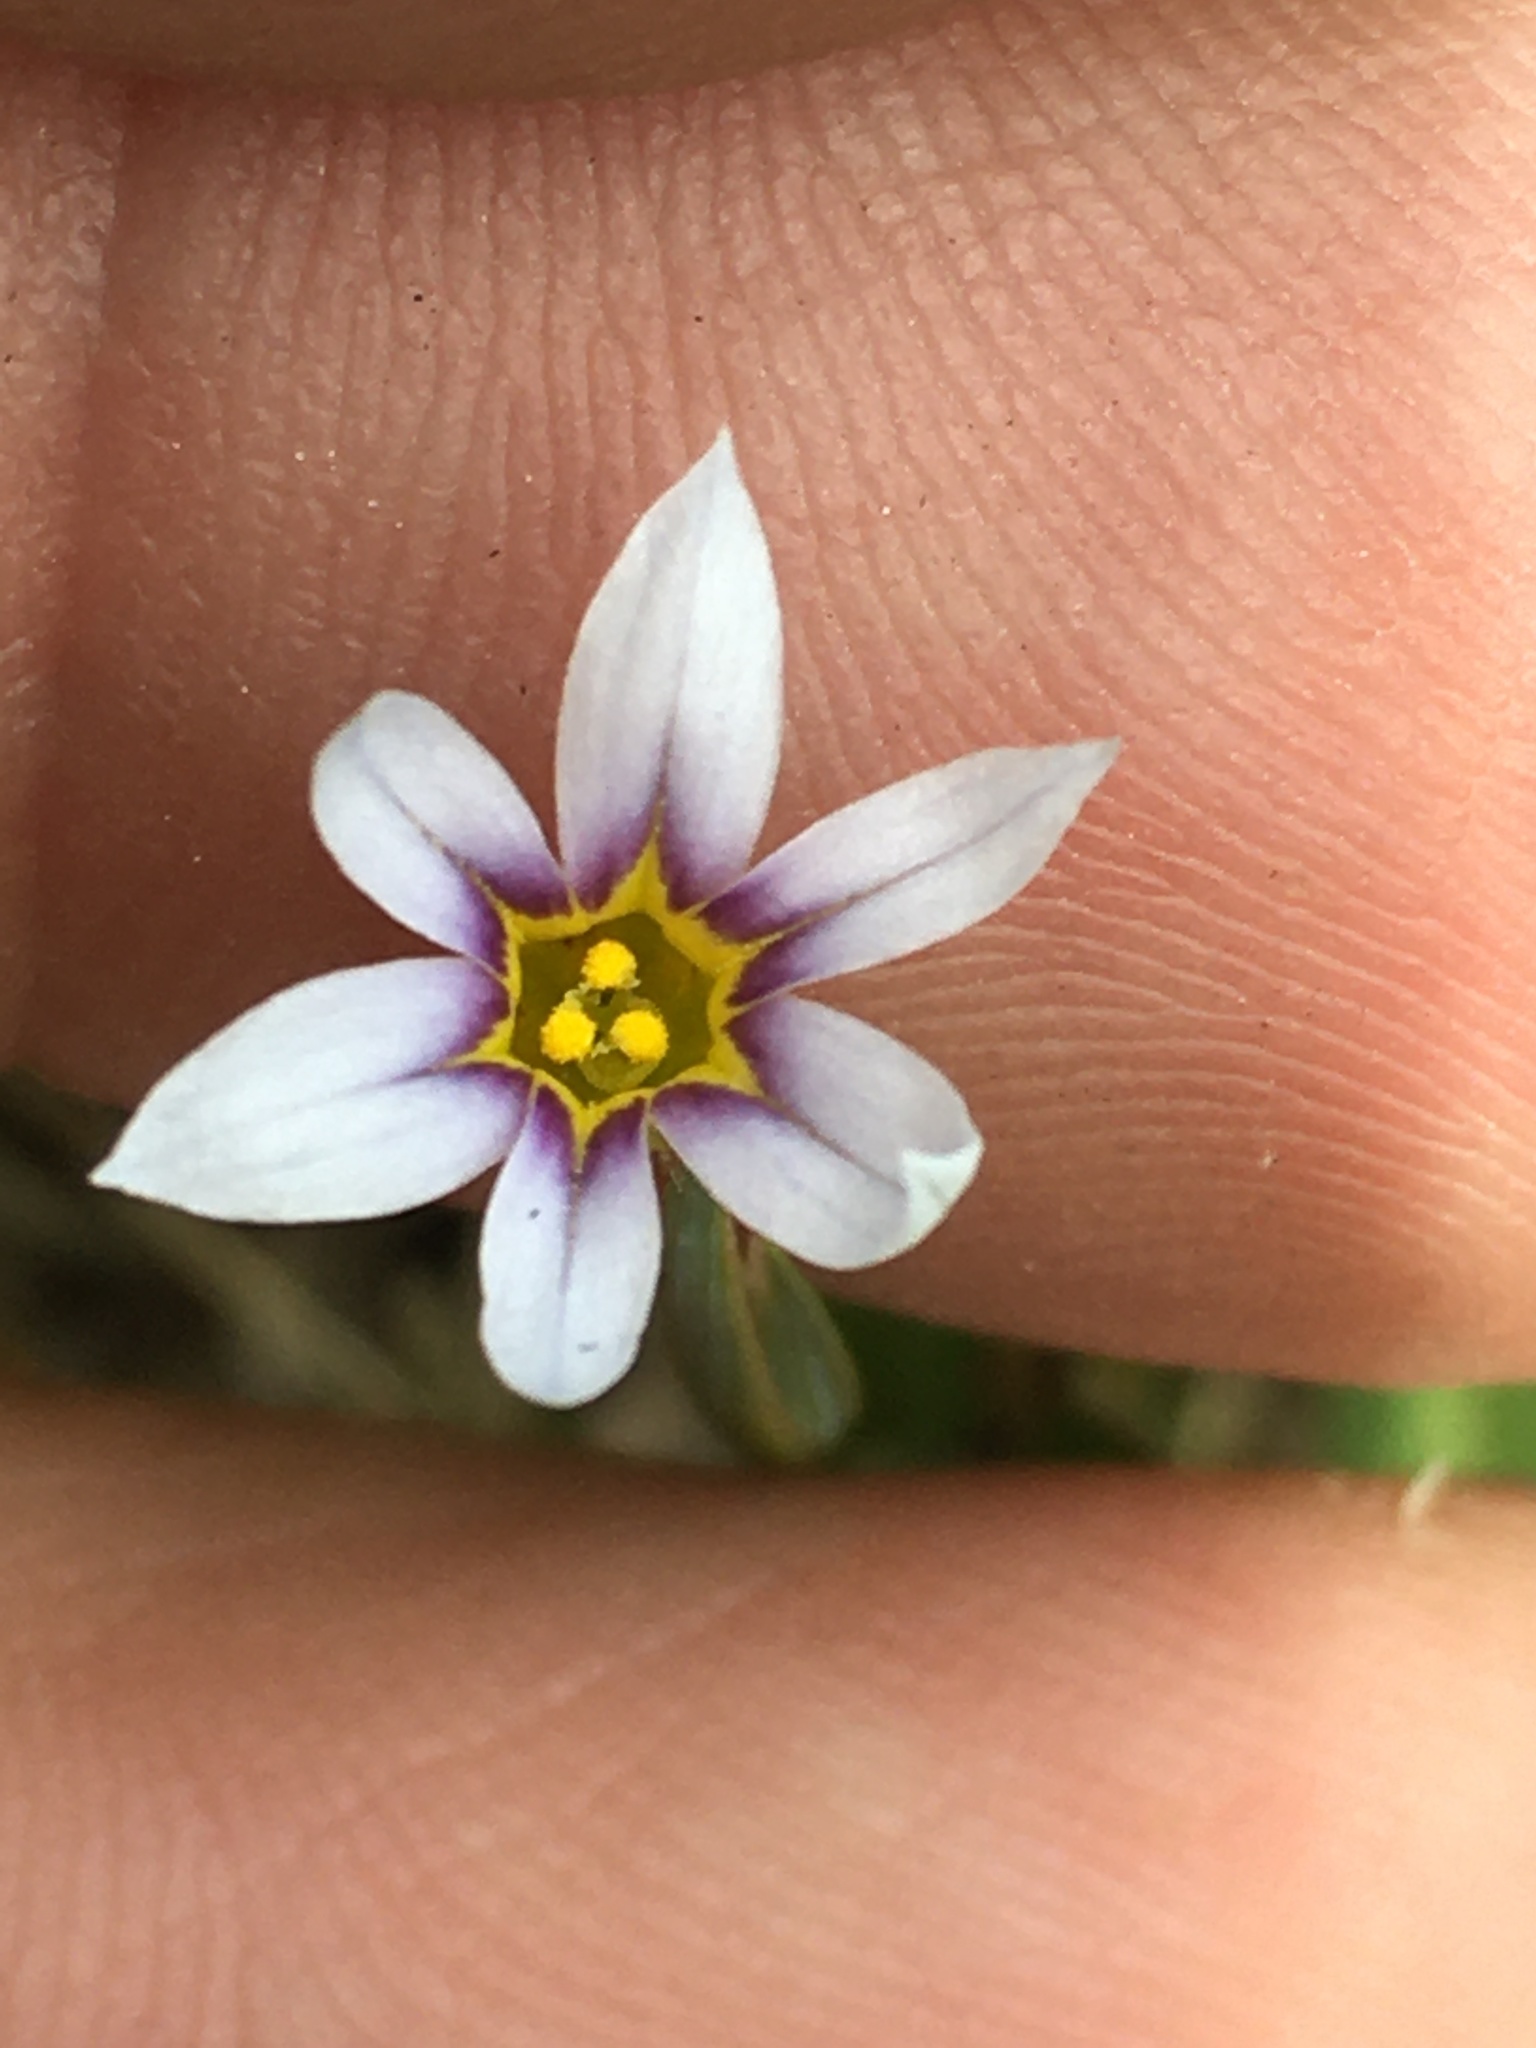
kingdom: Plantae
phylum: Tracheophyta
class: Liliopsida
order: Asparagales
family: Iridaceae
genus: Sisyrinchium
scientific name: Sisyrinchium micranthum
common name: Bermuda pigroot
